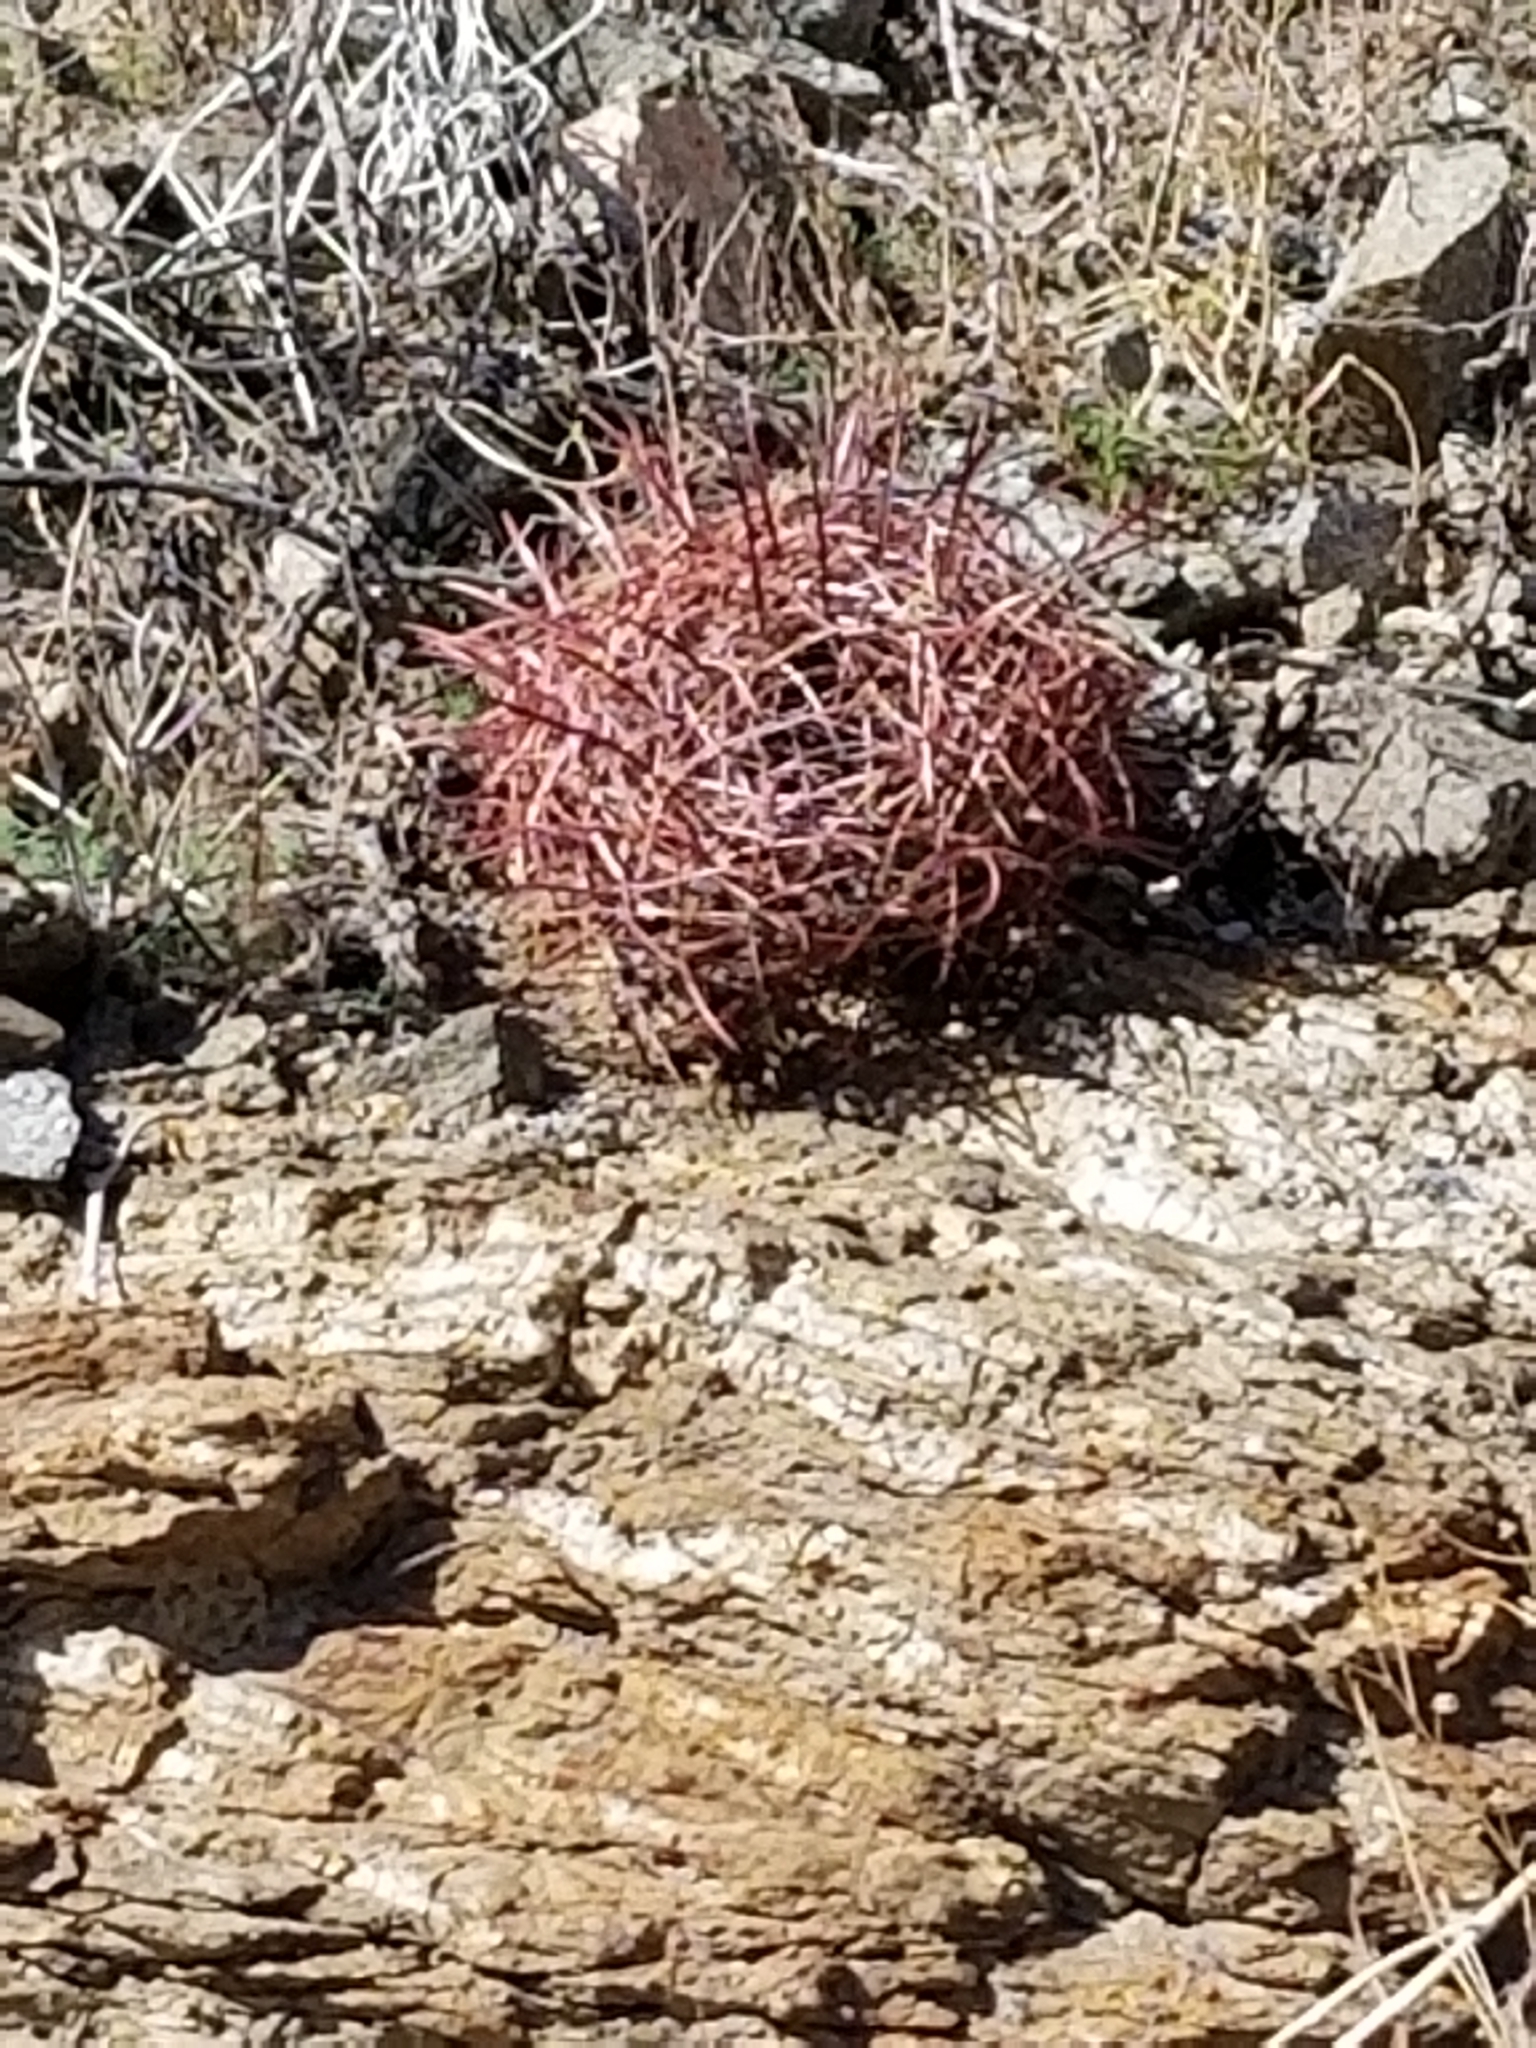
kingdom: Plantae
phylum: Tracheophyta
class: Magnoliopsida
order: Caryophyllales
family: Cactaceae
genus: Ferocactus
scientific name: Ferocactus cylindraceus
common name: California barrel cactus
